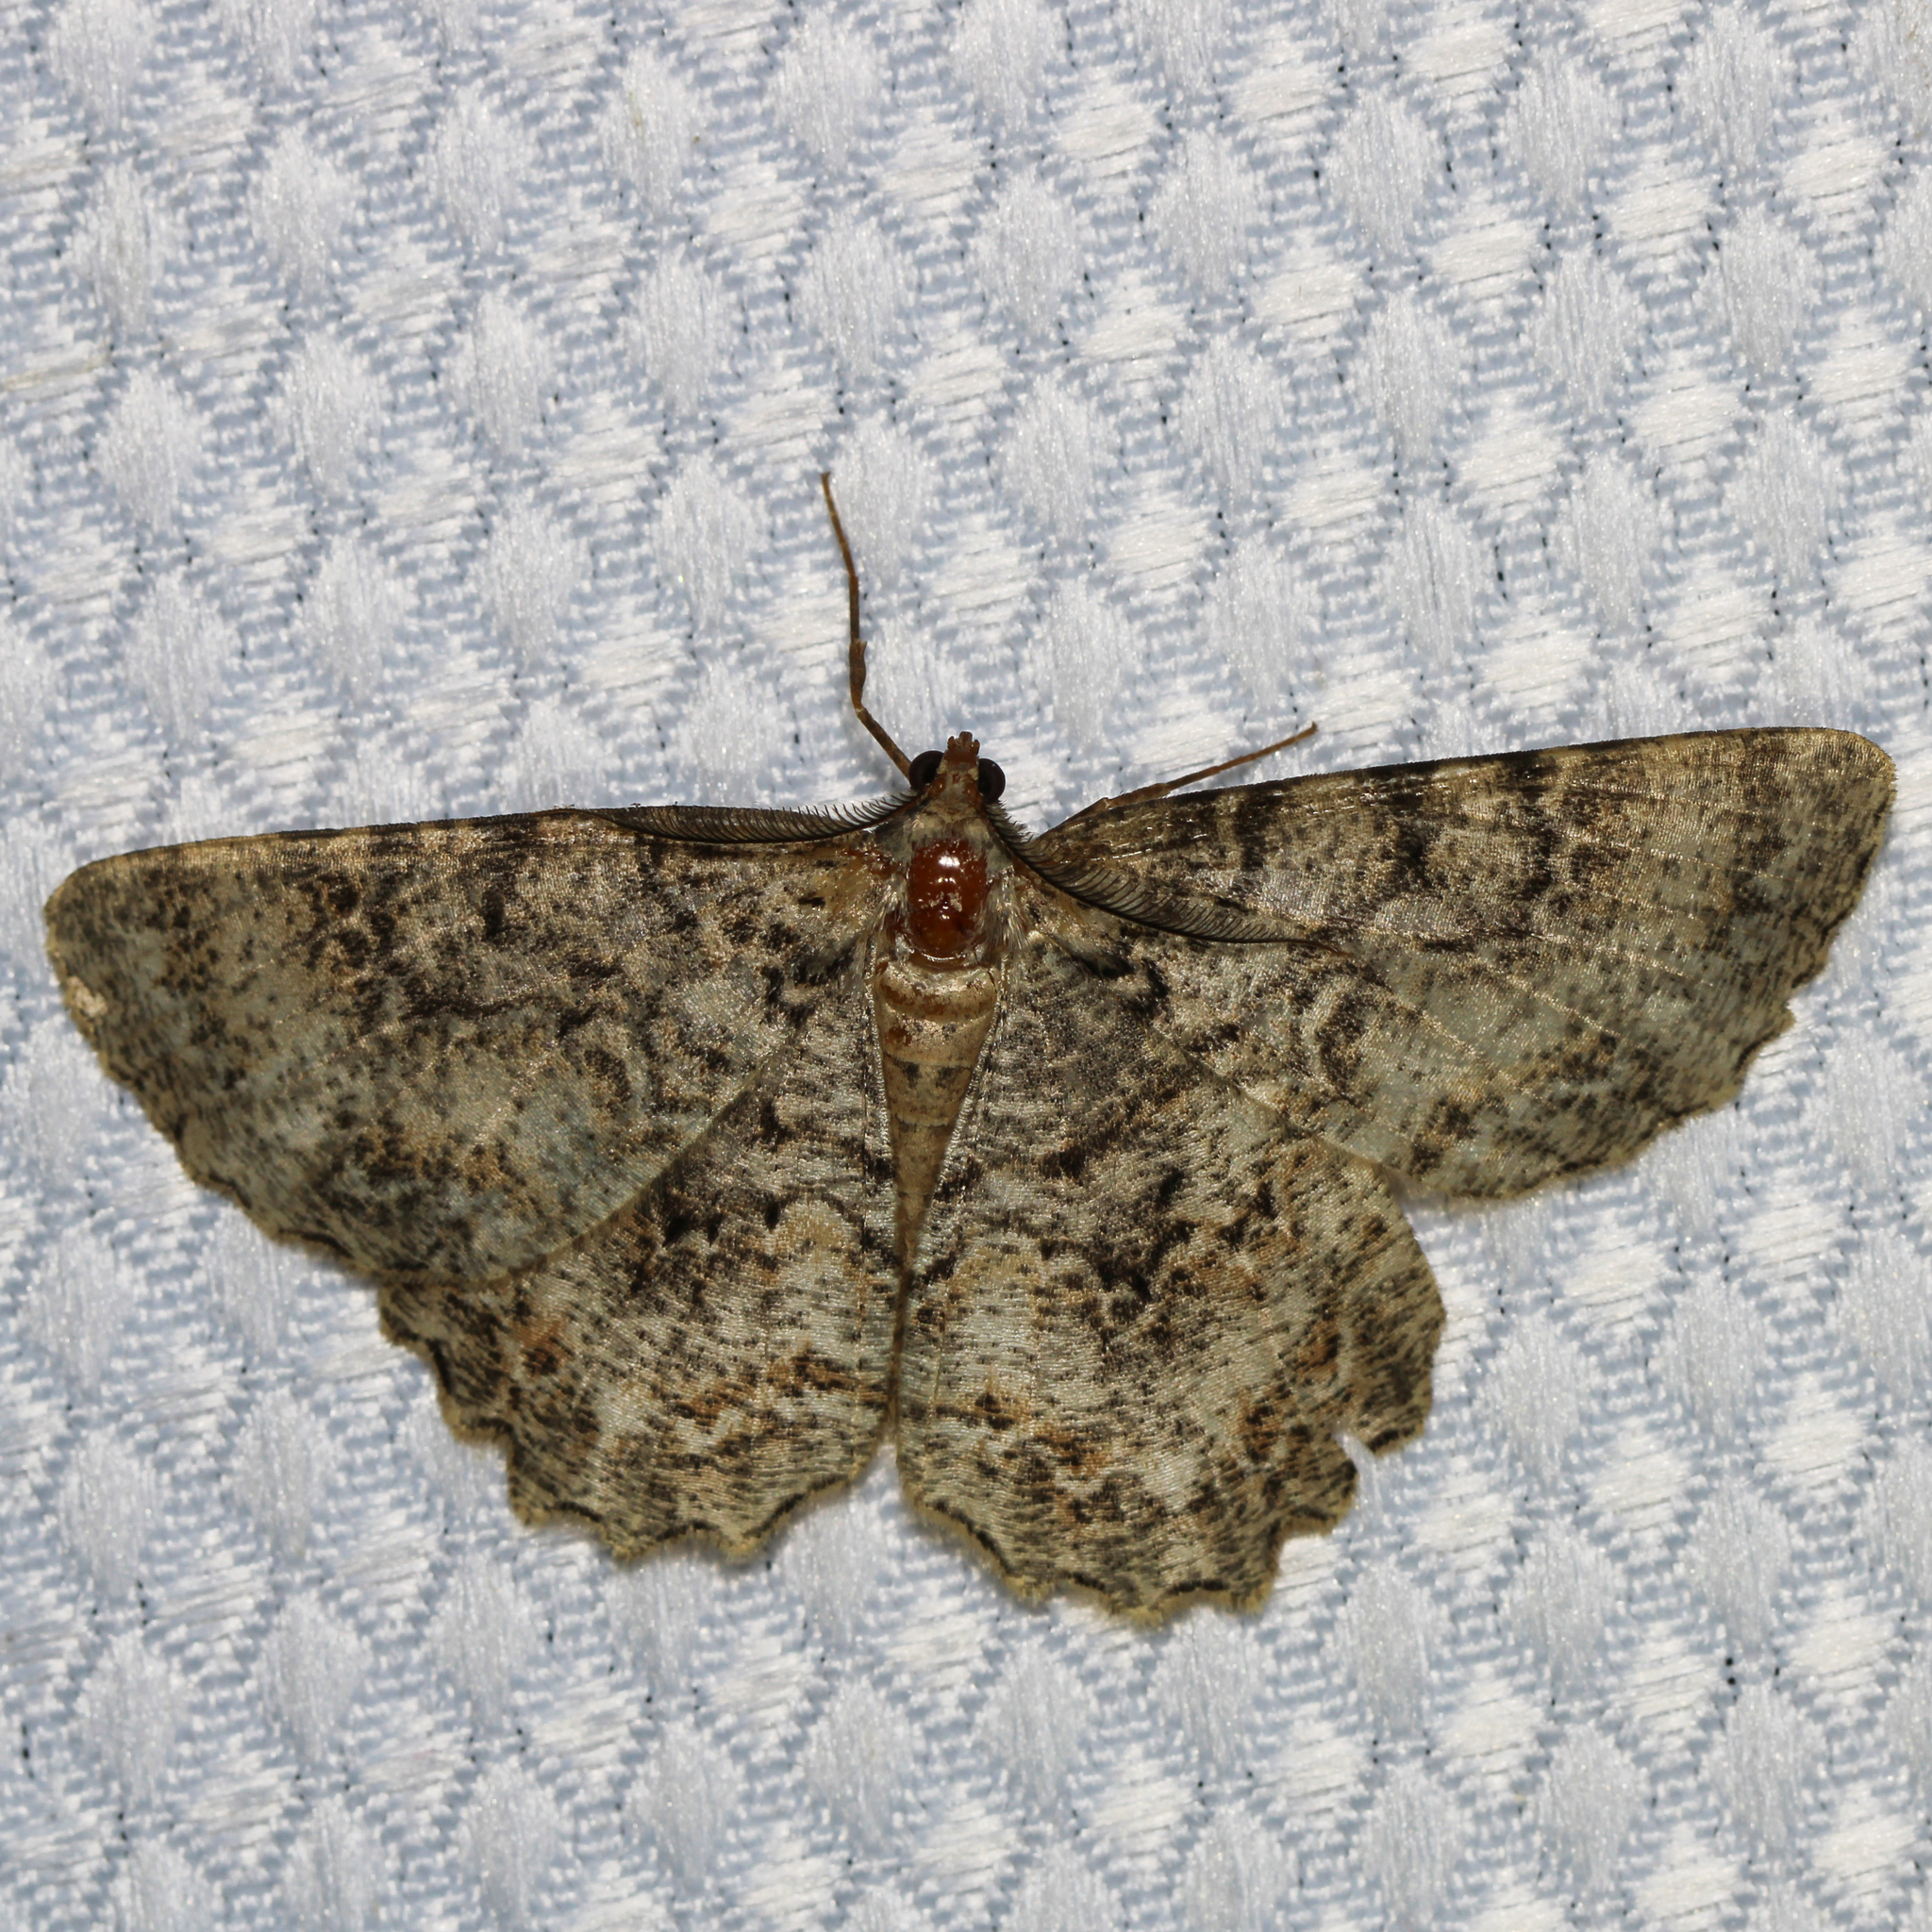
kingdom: Animalia
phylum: Arthropoda
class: Insecta
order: Lepidoptera
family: Geometridae
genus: Epimecis
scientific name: Epimecis hortaria
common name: Tulip-tree beauty
